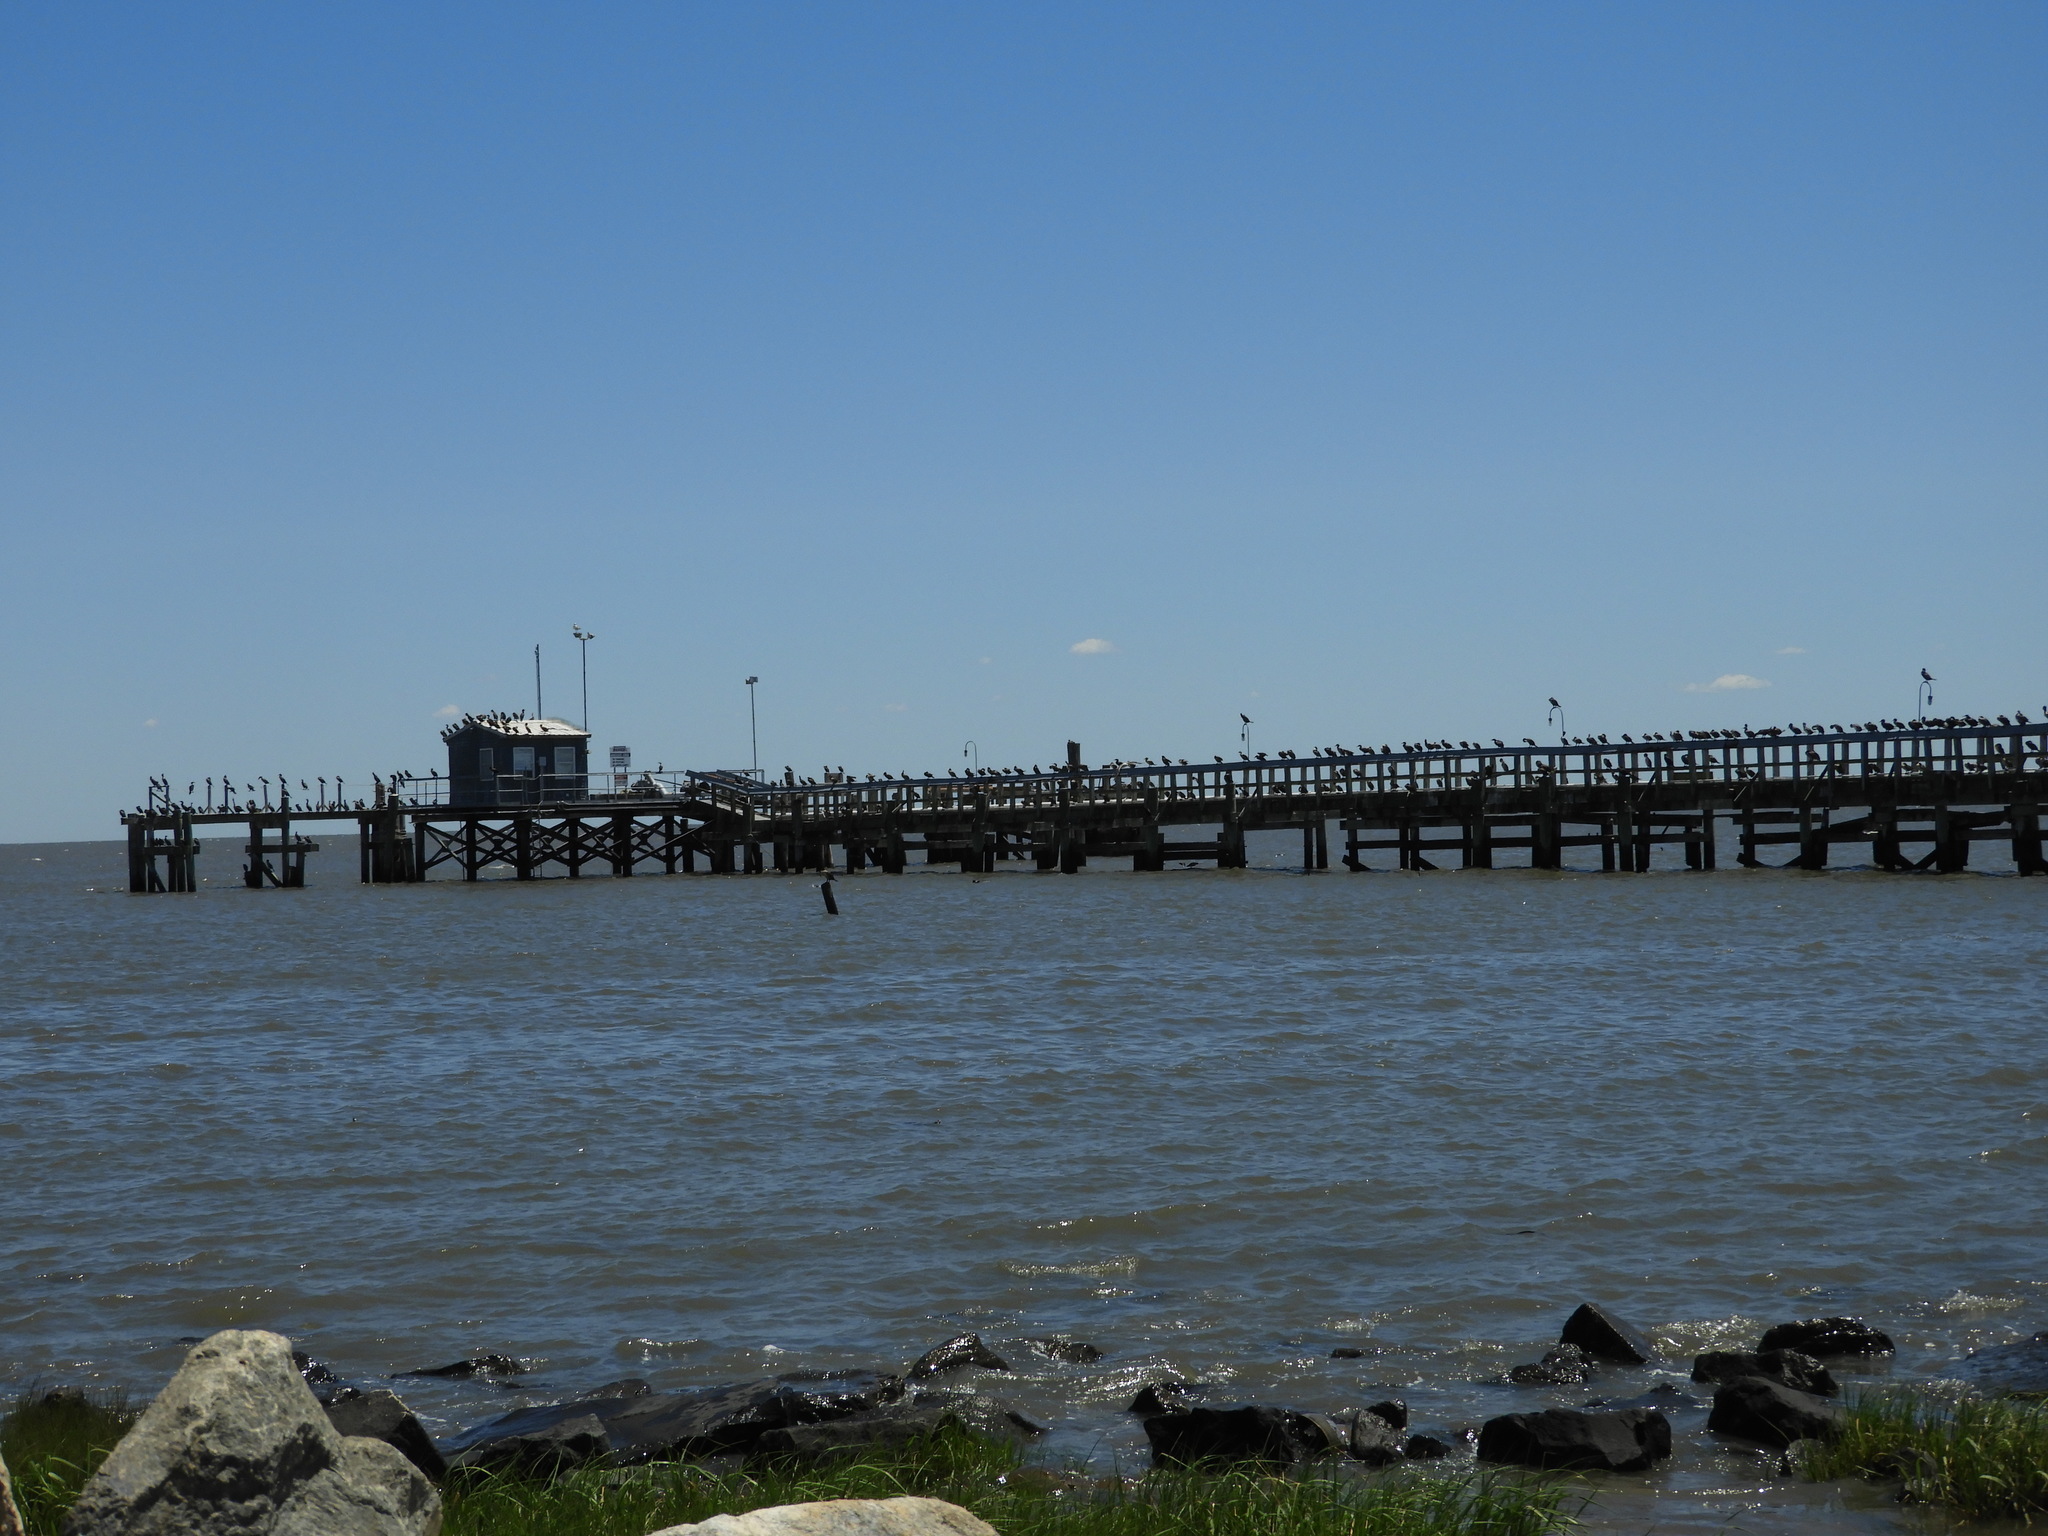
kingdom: Animalia
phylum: Chordata
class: Aves
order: Suliformes
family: Phalacrocoracidae
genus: Phalacrocorax
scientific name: Phalacrocorax auritus
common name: Double-crested cormorant
